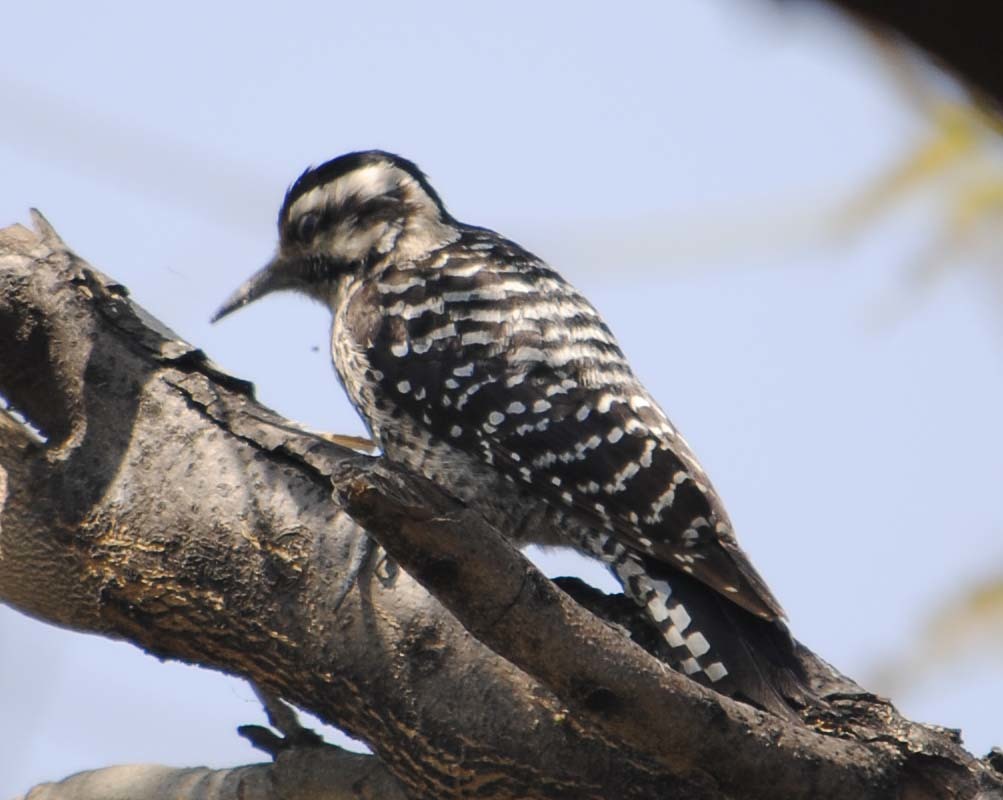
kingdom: Animalia
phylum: Chordata
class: Aves
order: Piciformes
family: Picidae
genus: Dryobates
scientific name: Dryobates scalaris
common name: Ladder-backed woodpecker
